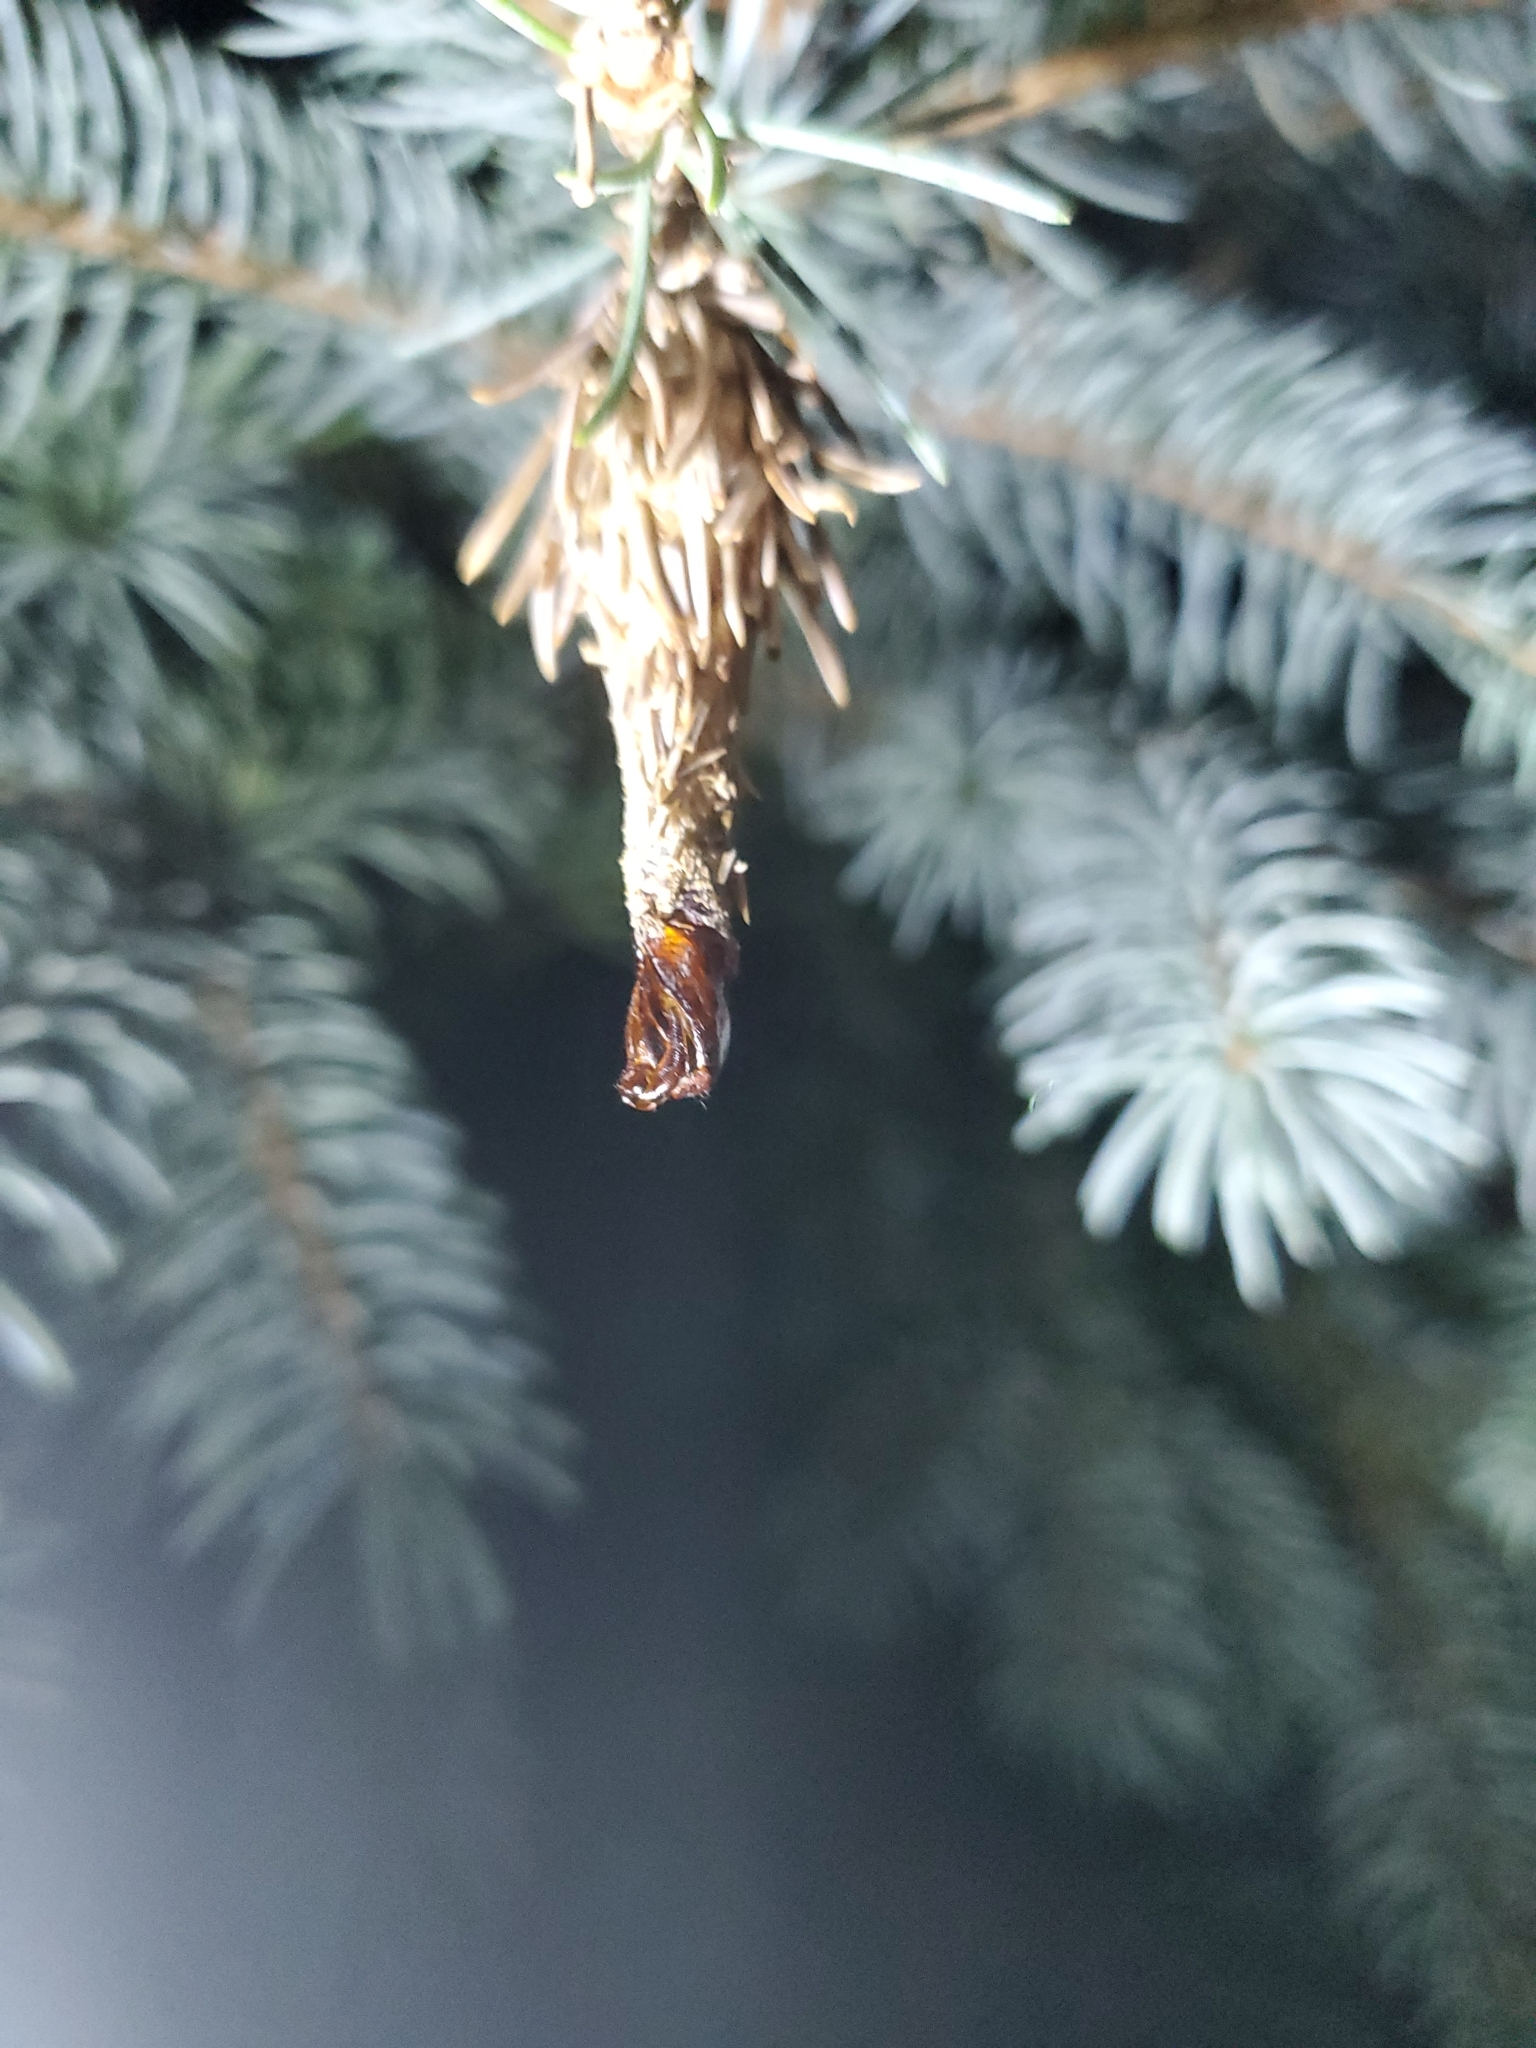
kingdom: Animalia
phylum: Arthropoda
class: Insecta
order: Lepidoptera
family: Psychidae
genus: Thyridopteryx
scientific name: Thyridopteryx ephemeraeformis
